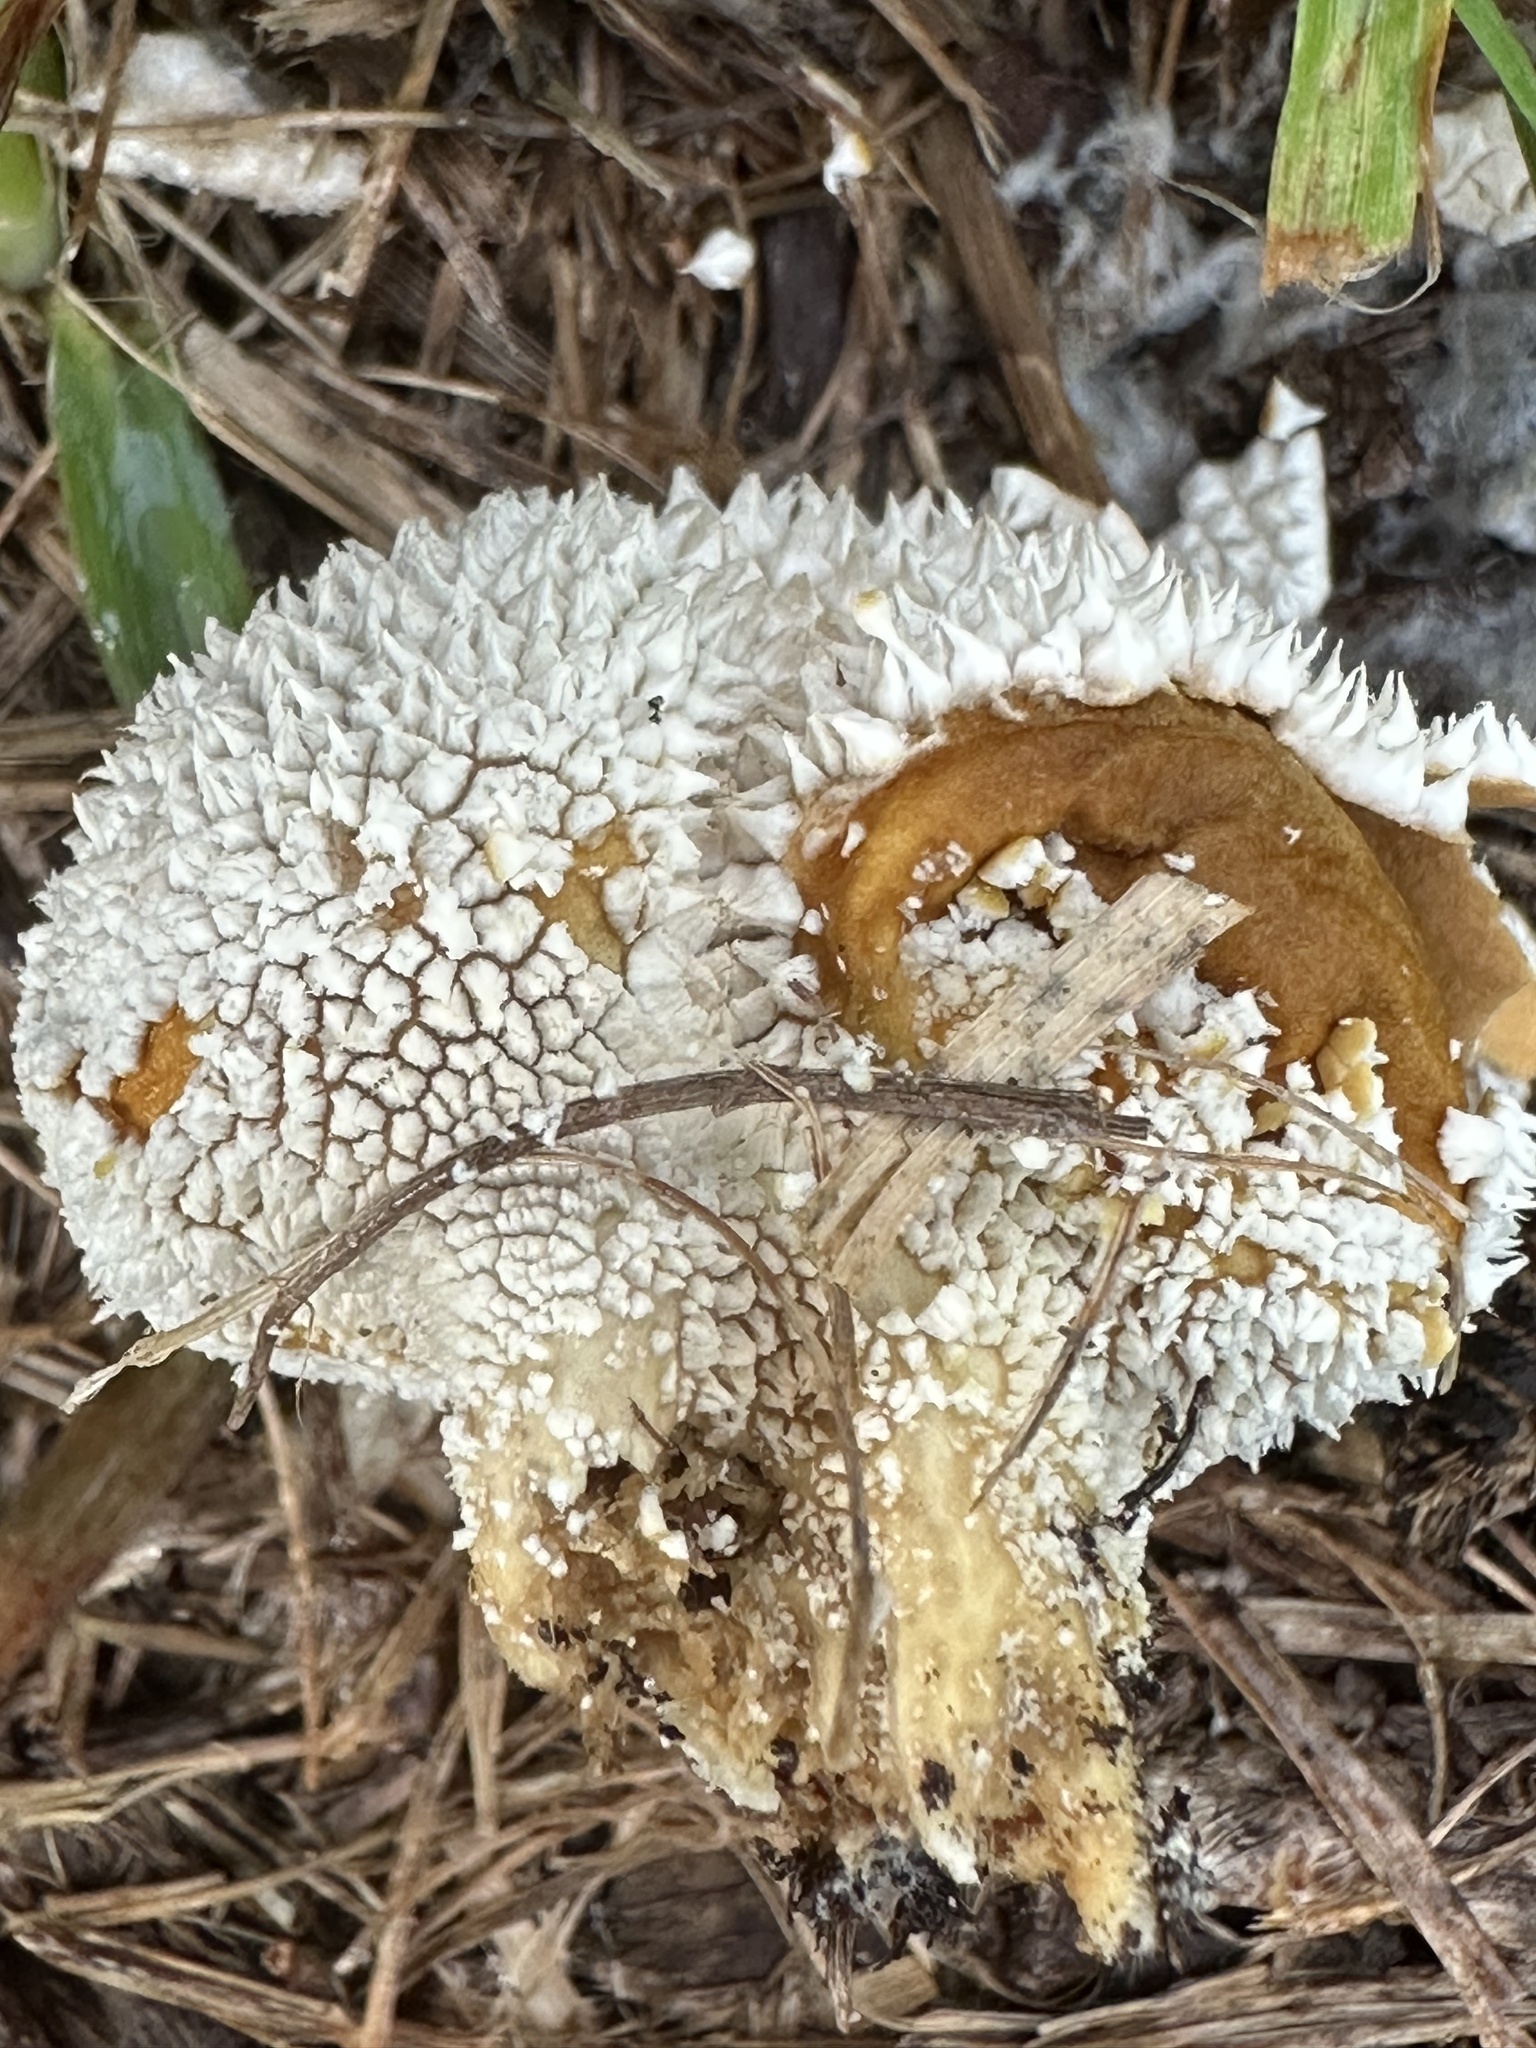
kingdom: Fungi
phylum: Basidiomycota
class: Agaricomycetes
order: Agaricales
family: Agaricaceae
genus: Lycoperdon
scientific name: Lycoperdon marginatum
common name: Peeling puffball
